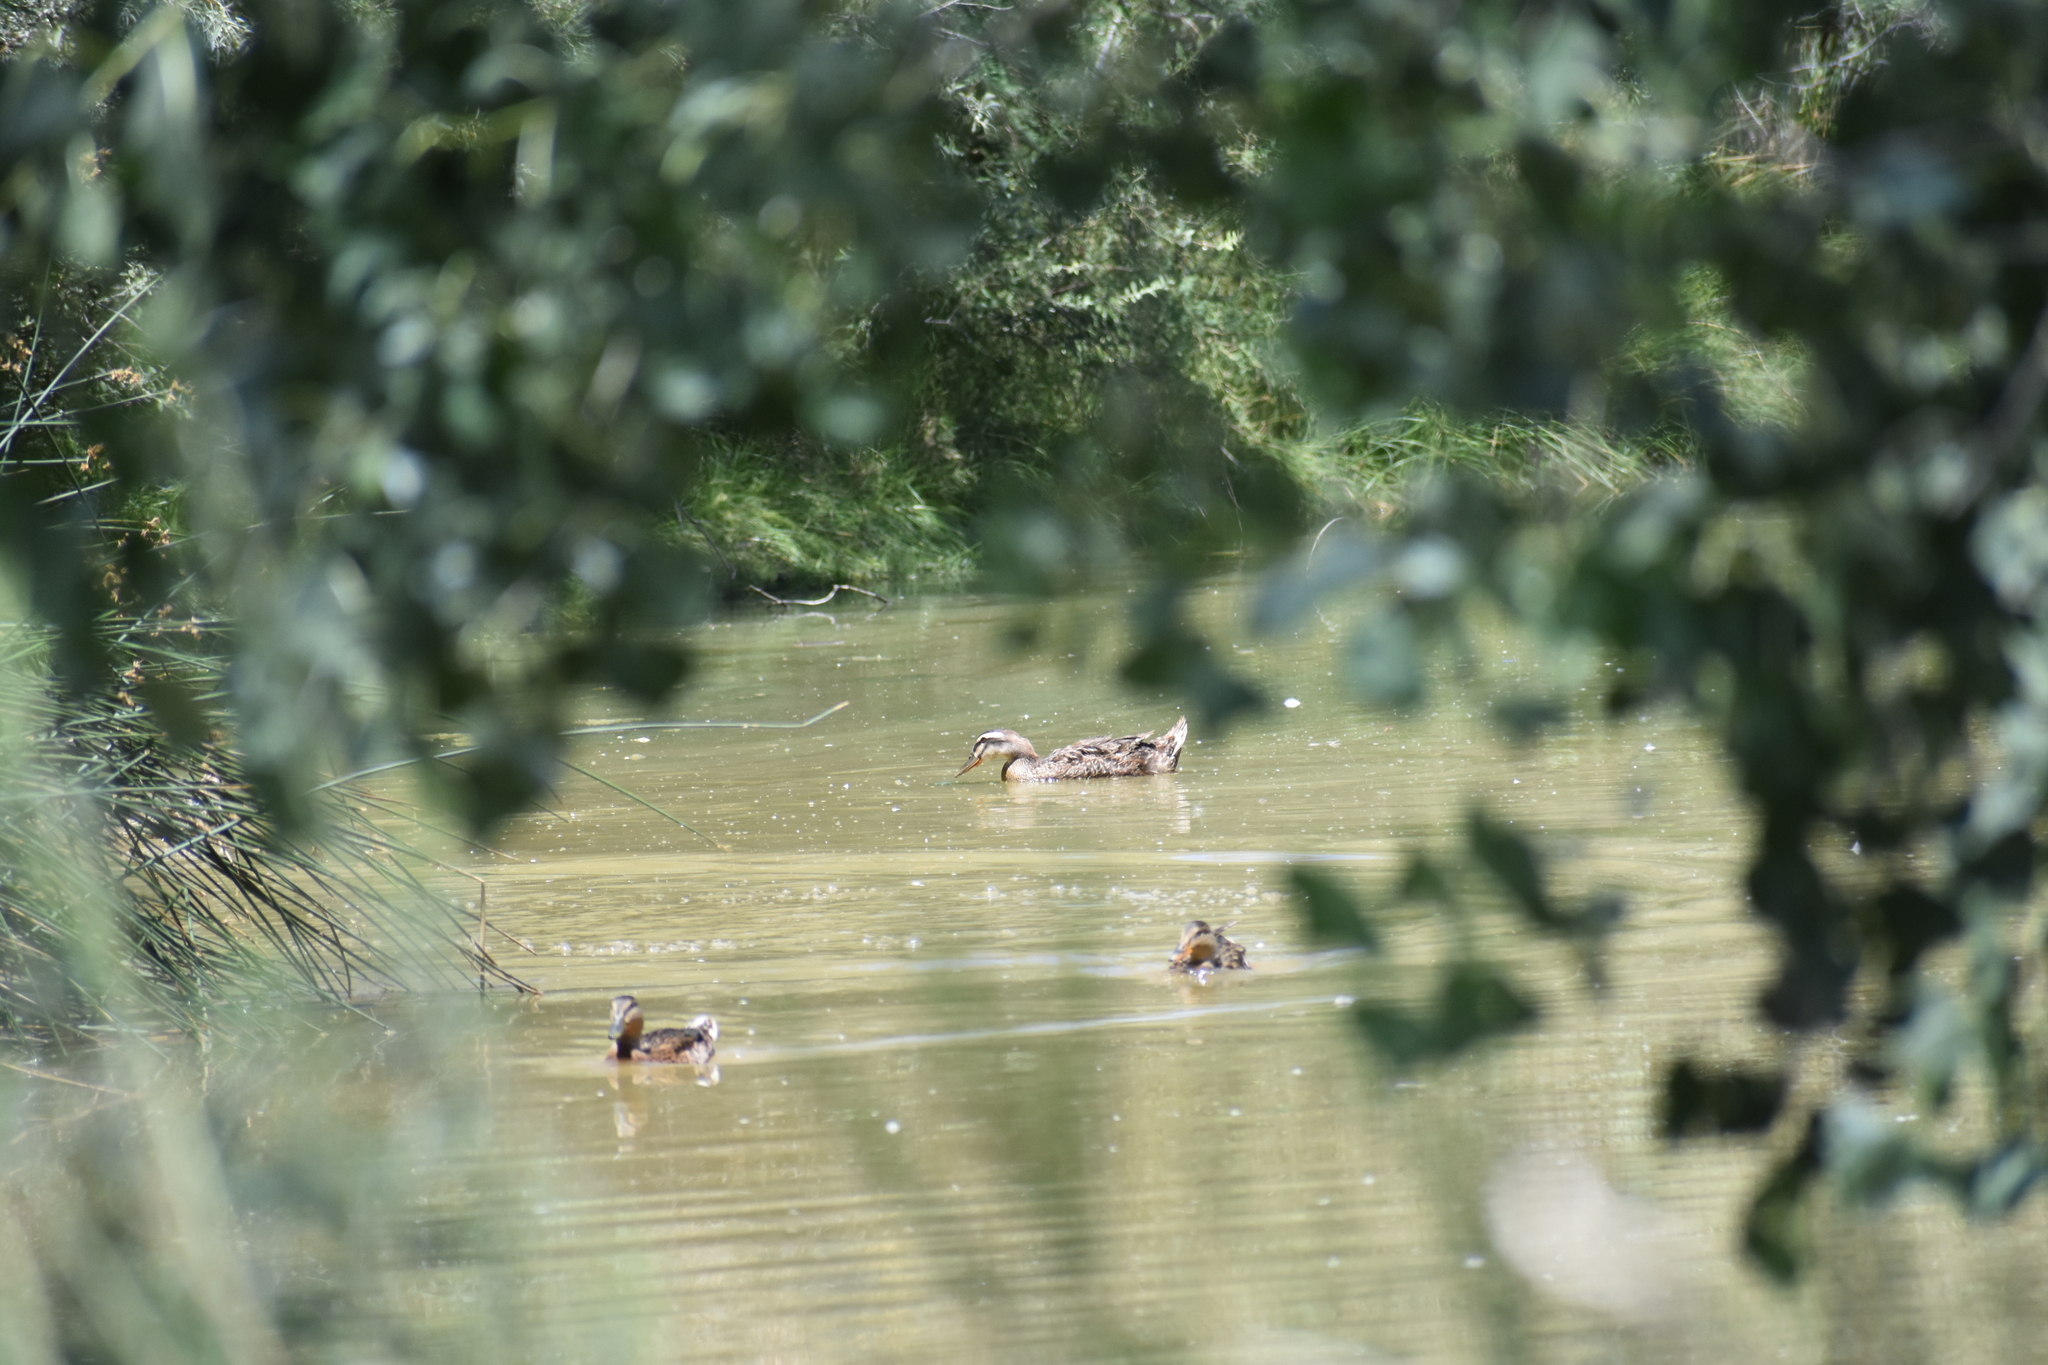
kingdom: Animalia
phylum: Chordata
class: Aves
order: Anseriformes
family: Anatidae
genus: Anas
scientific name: Anas platyrhynchos
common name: Mallard
